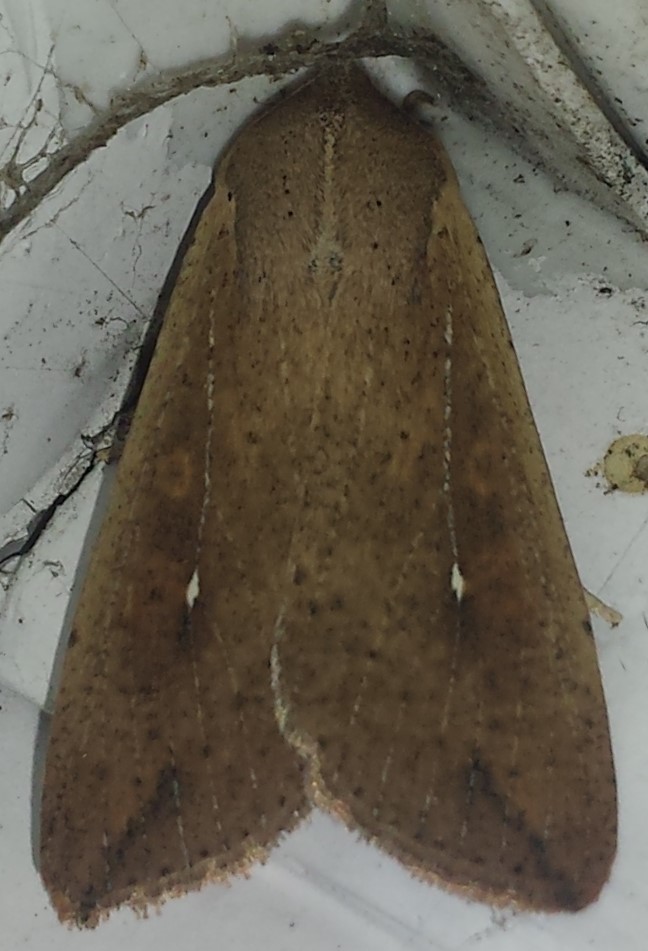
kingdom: Animalia
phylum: Arthropoda
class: Insecta
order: Lepidoptera
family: Noctuidae
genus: Mythimna
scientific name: Mythimna unipuncta
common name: White-speck
